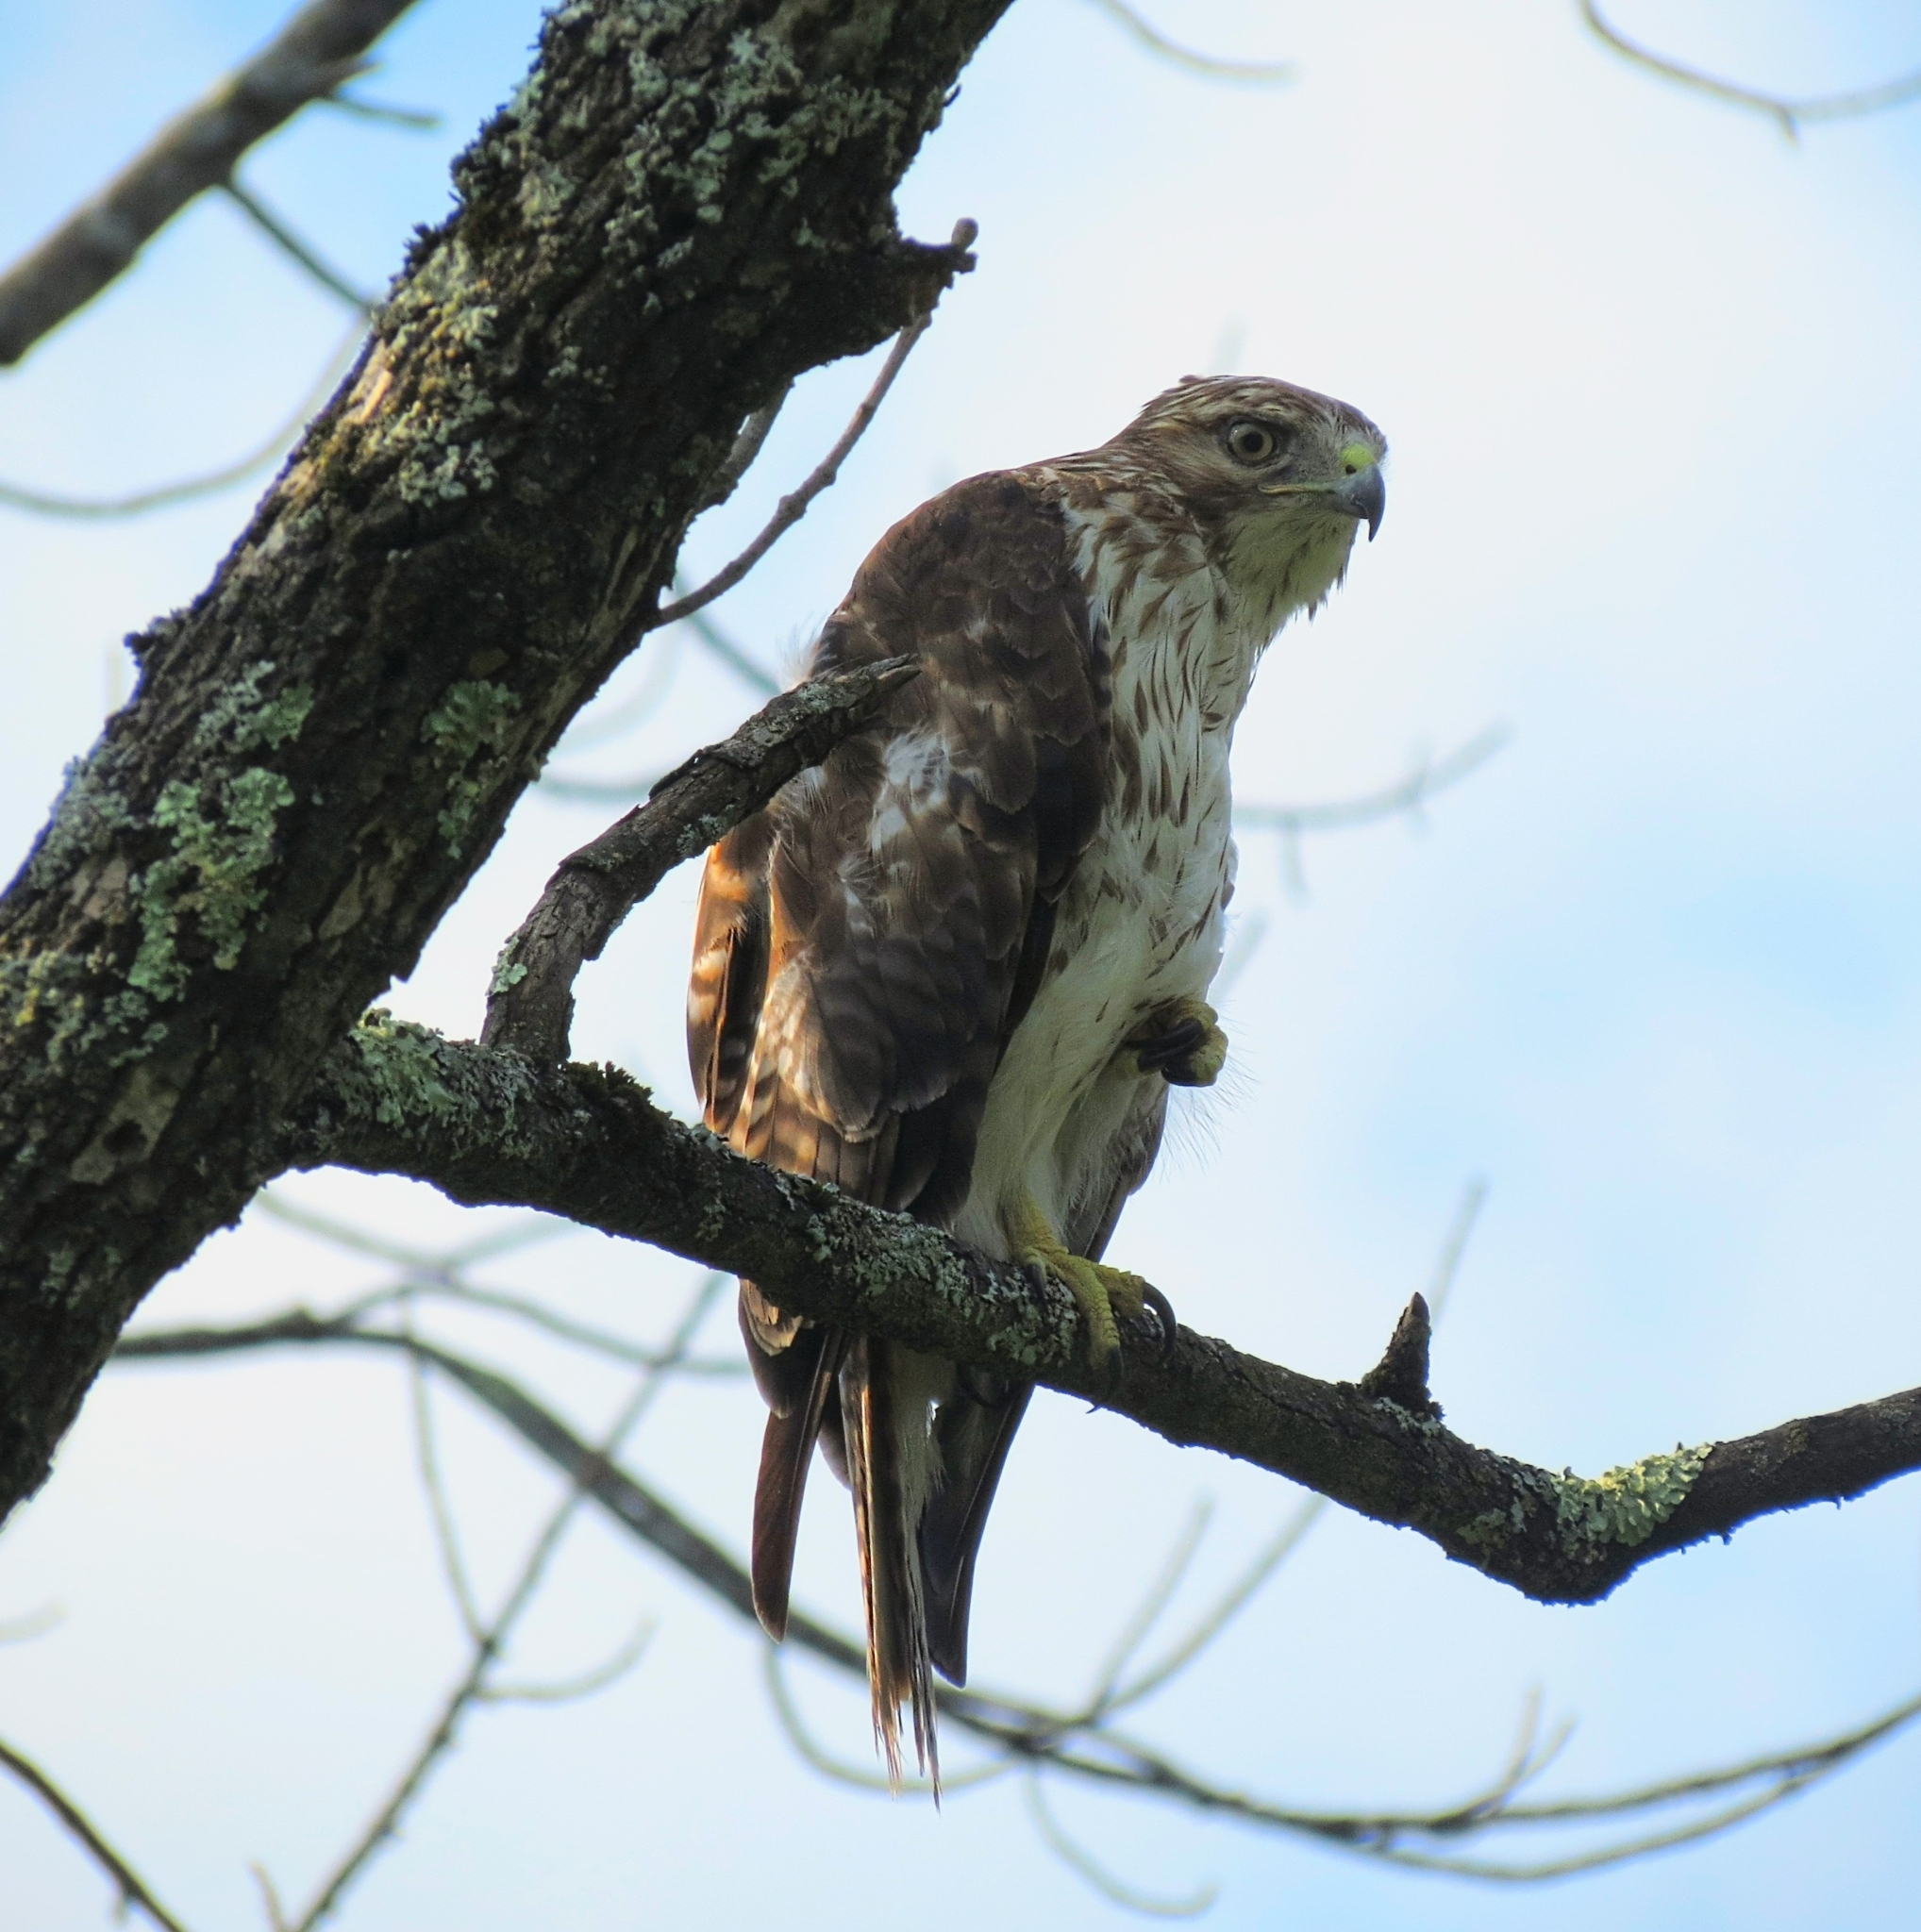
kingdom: Animalia
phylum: Chordata
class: Aves
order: Accipitriformes
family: Accipitridae
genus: Buteo
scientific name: Buteo jamaicensis
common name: Red-tailed hawk
